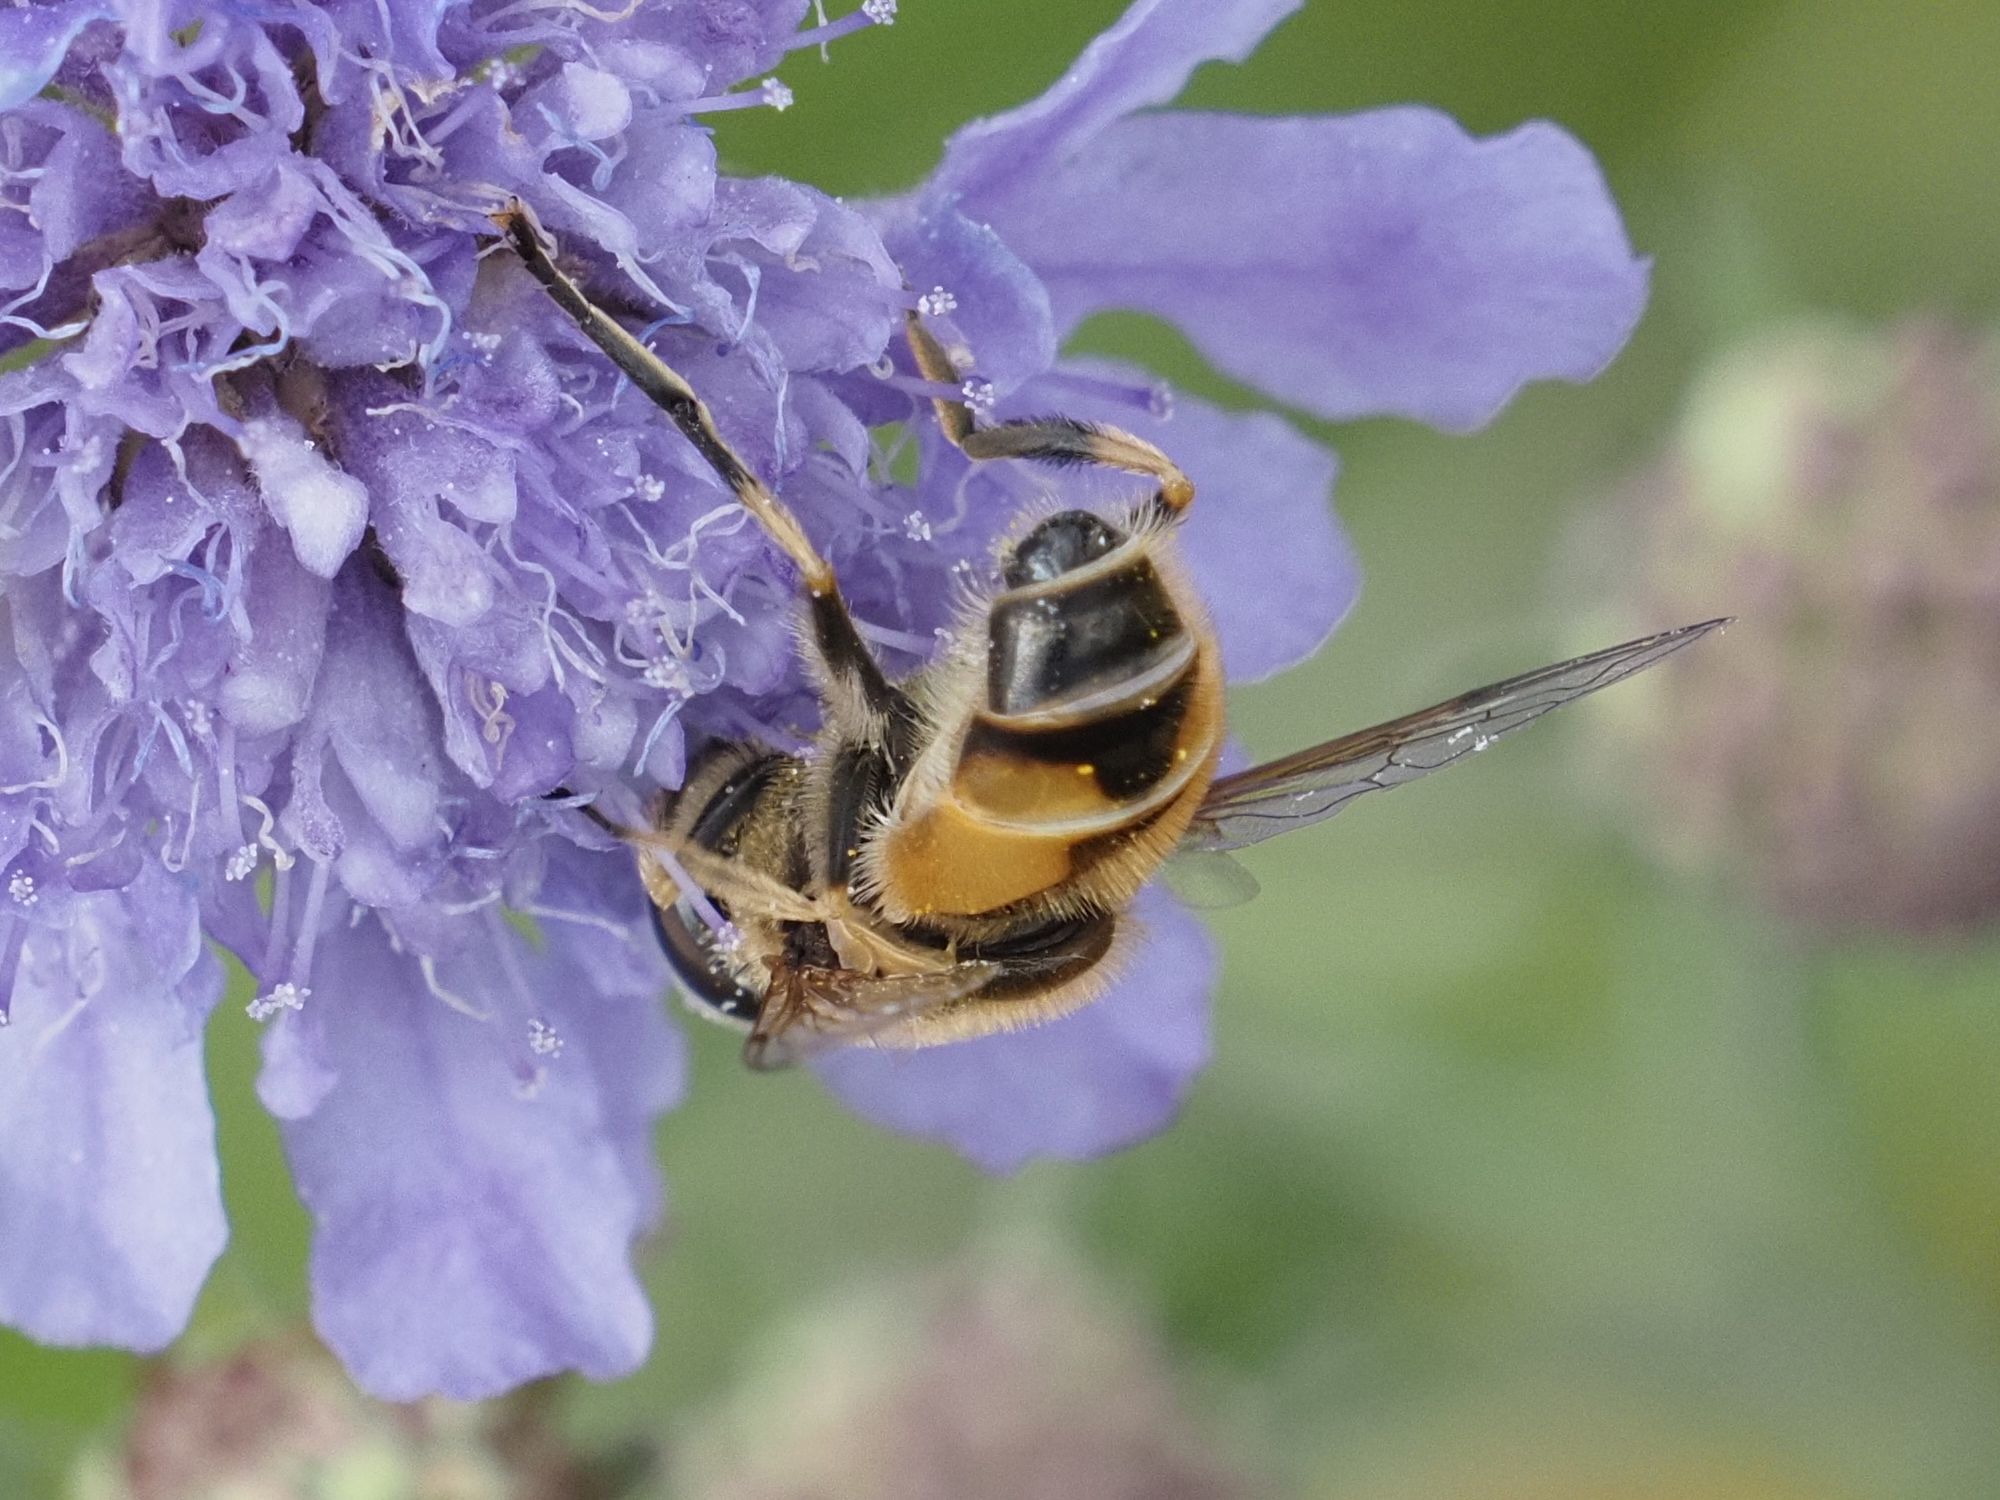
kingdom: Animalia
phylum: Arthropoda
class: Insecta
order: Diptera
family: Syrphidae
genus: Eristalis
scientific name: Eristalis arbustorum
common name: Hover fly
